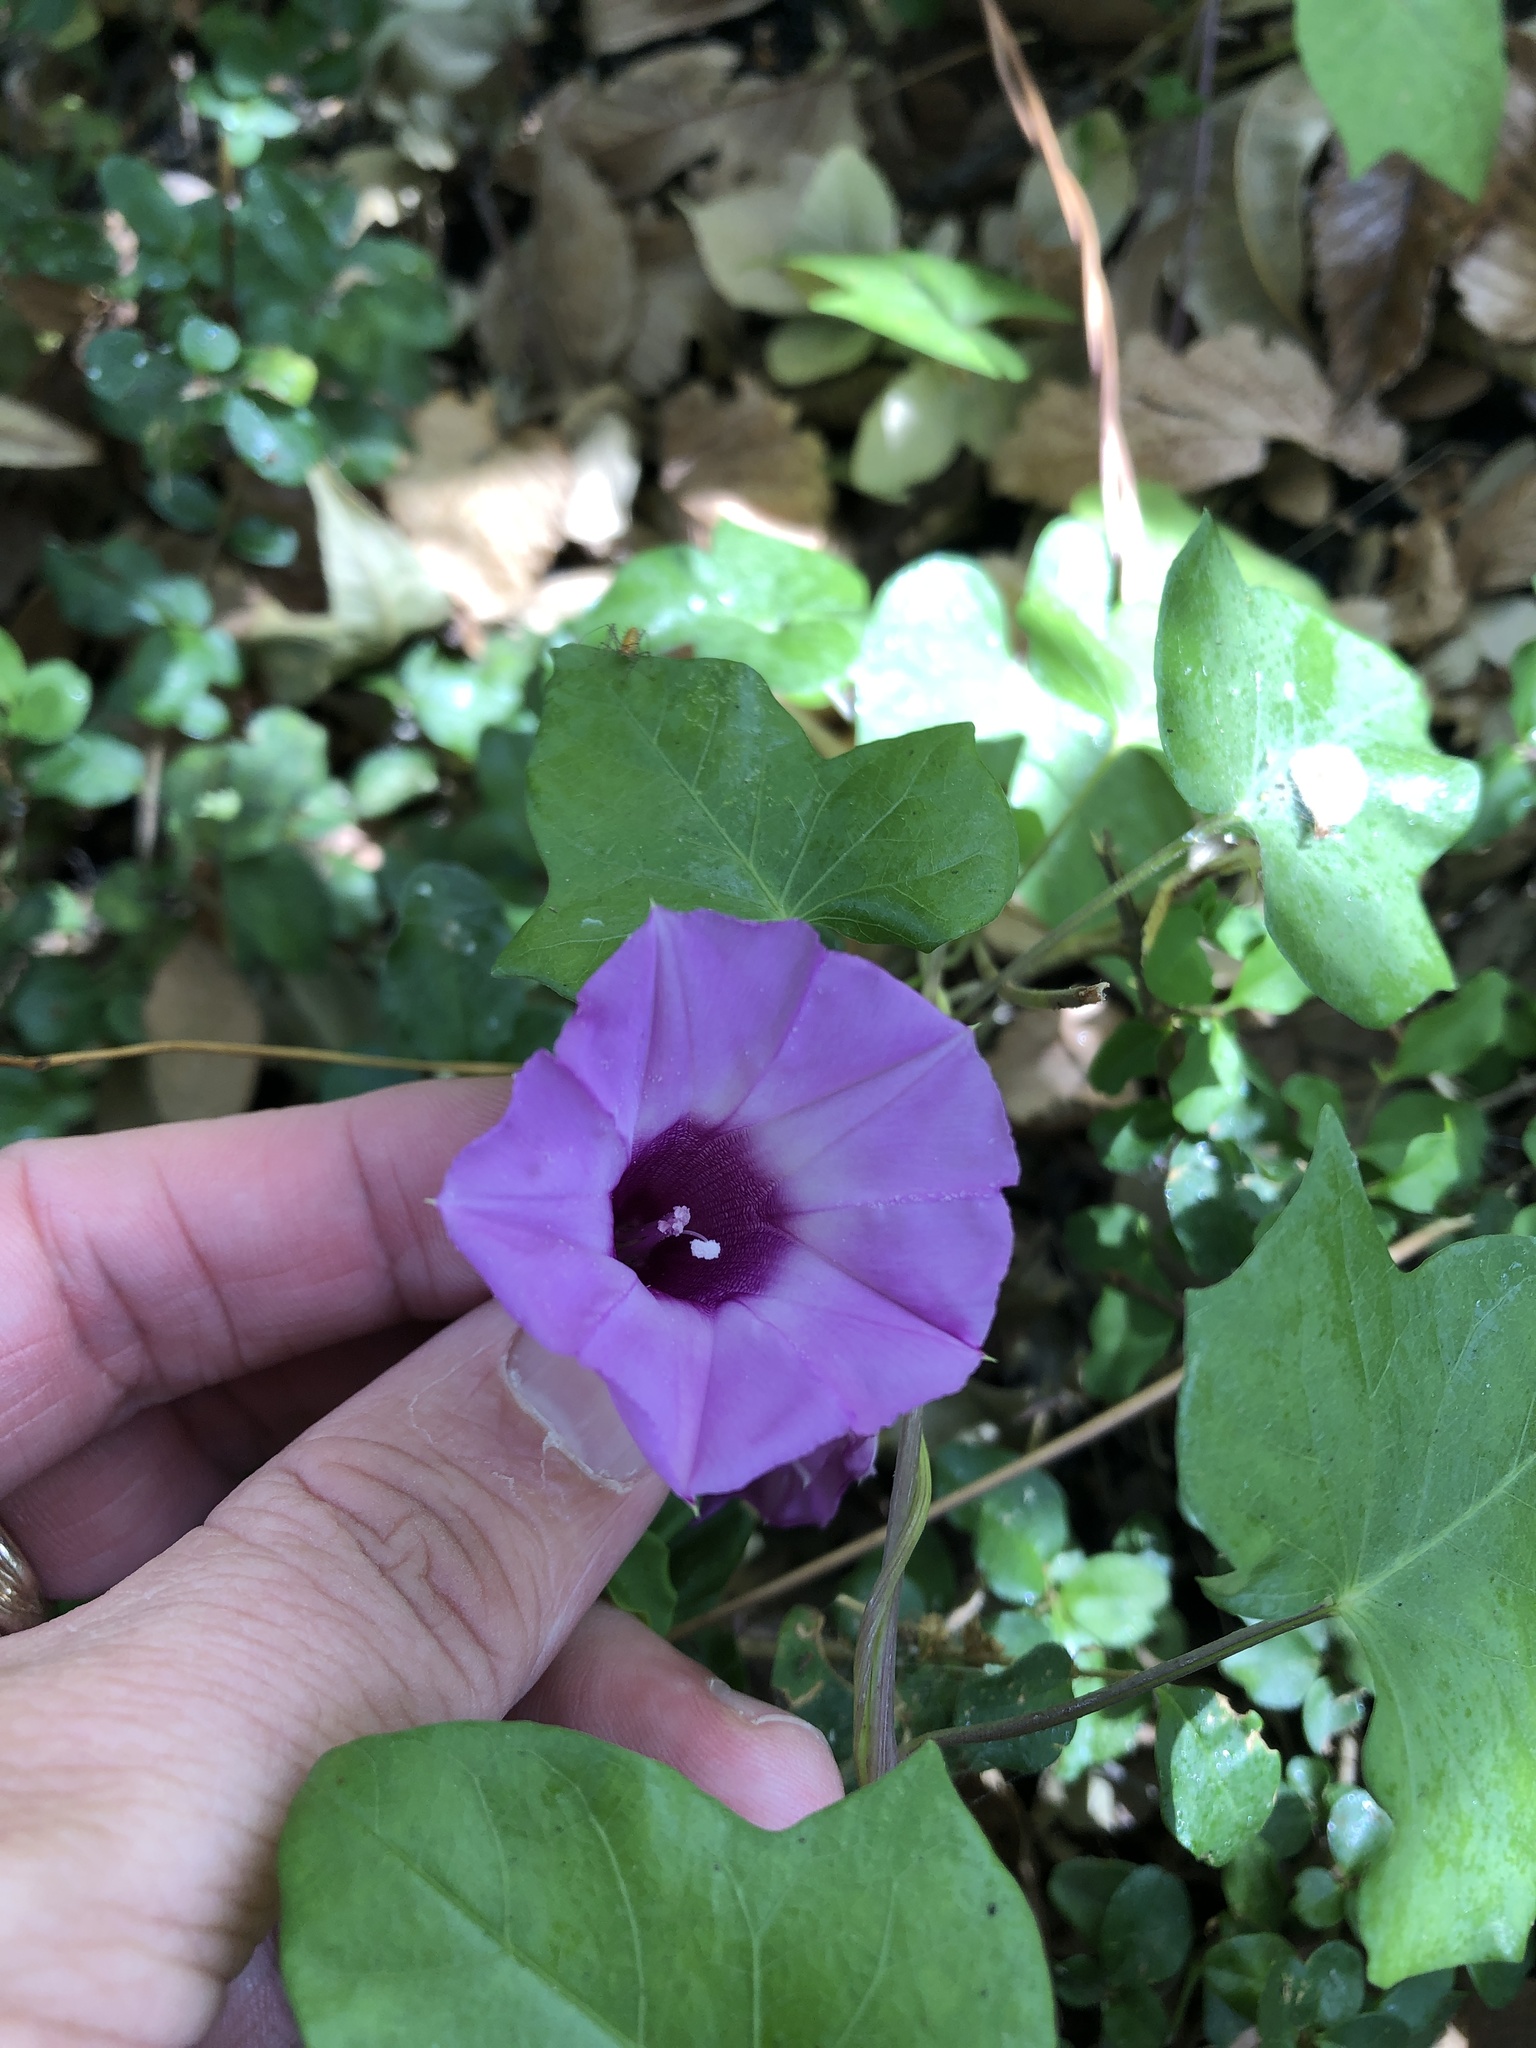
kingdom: Plantae
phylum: Tracheophyta
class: Magnoliopsida
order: Solanales
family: Convolvulaceae
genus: Ipomoea
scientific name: Ipomoea cordatotriloba
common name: Cotton morning glory
